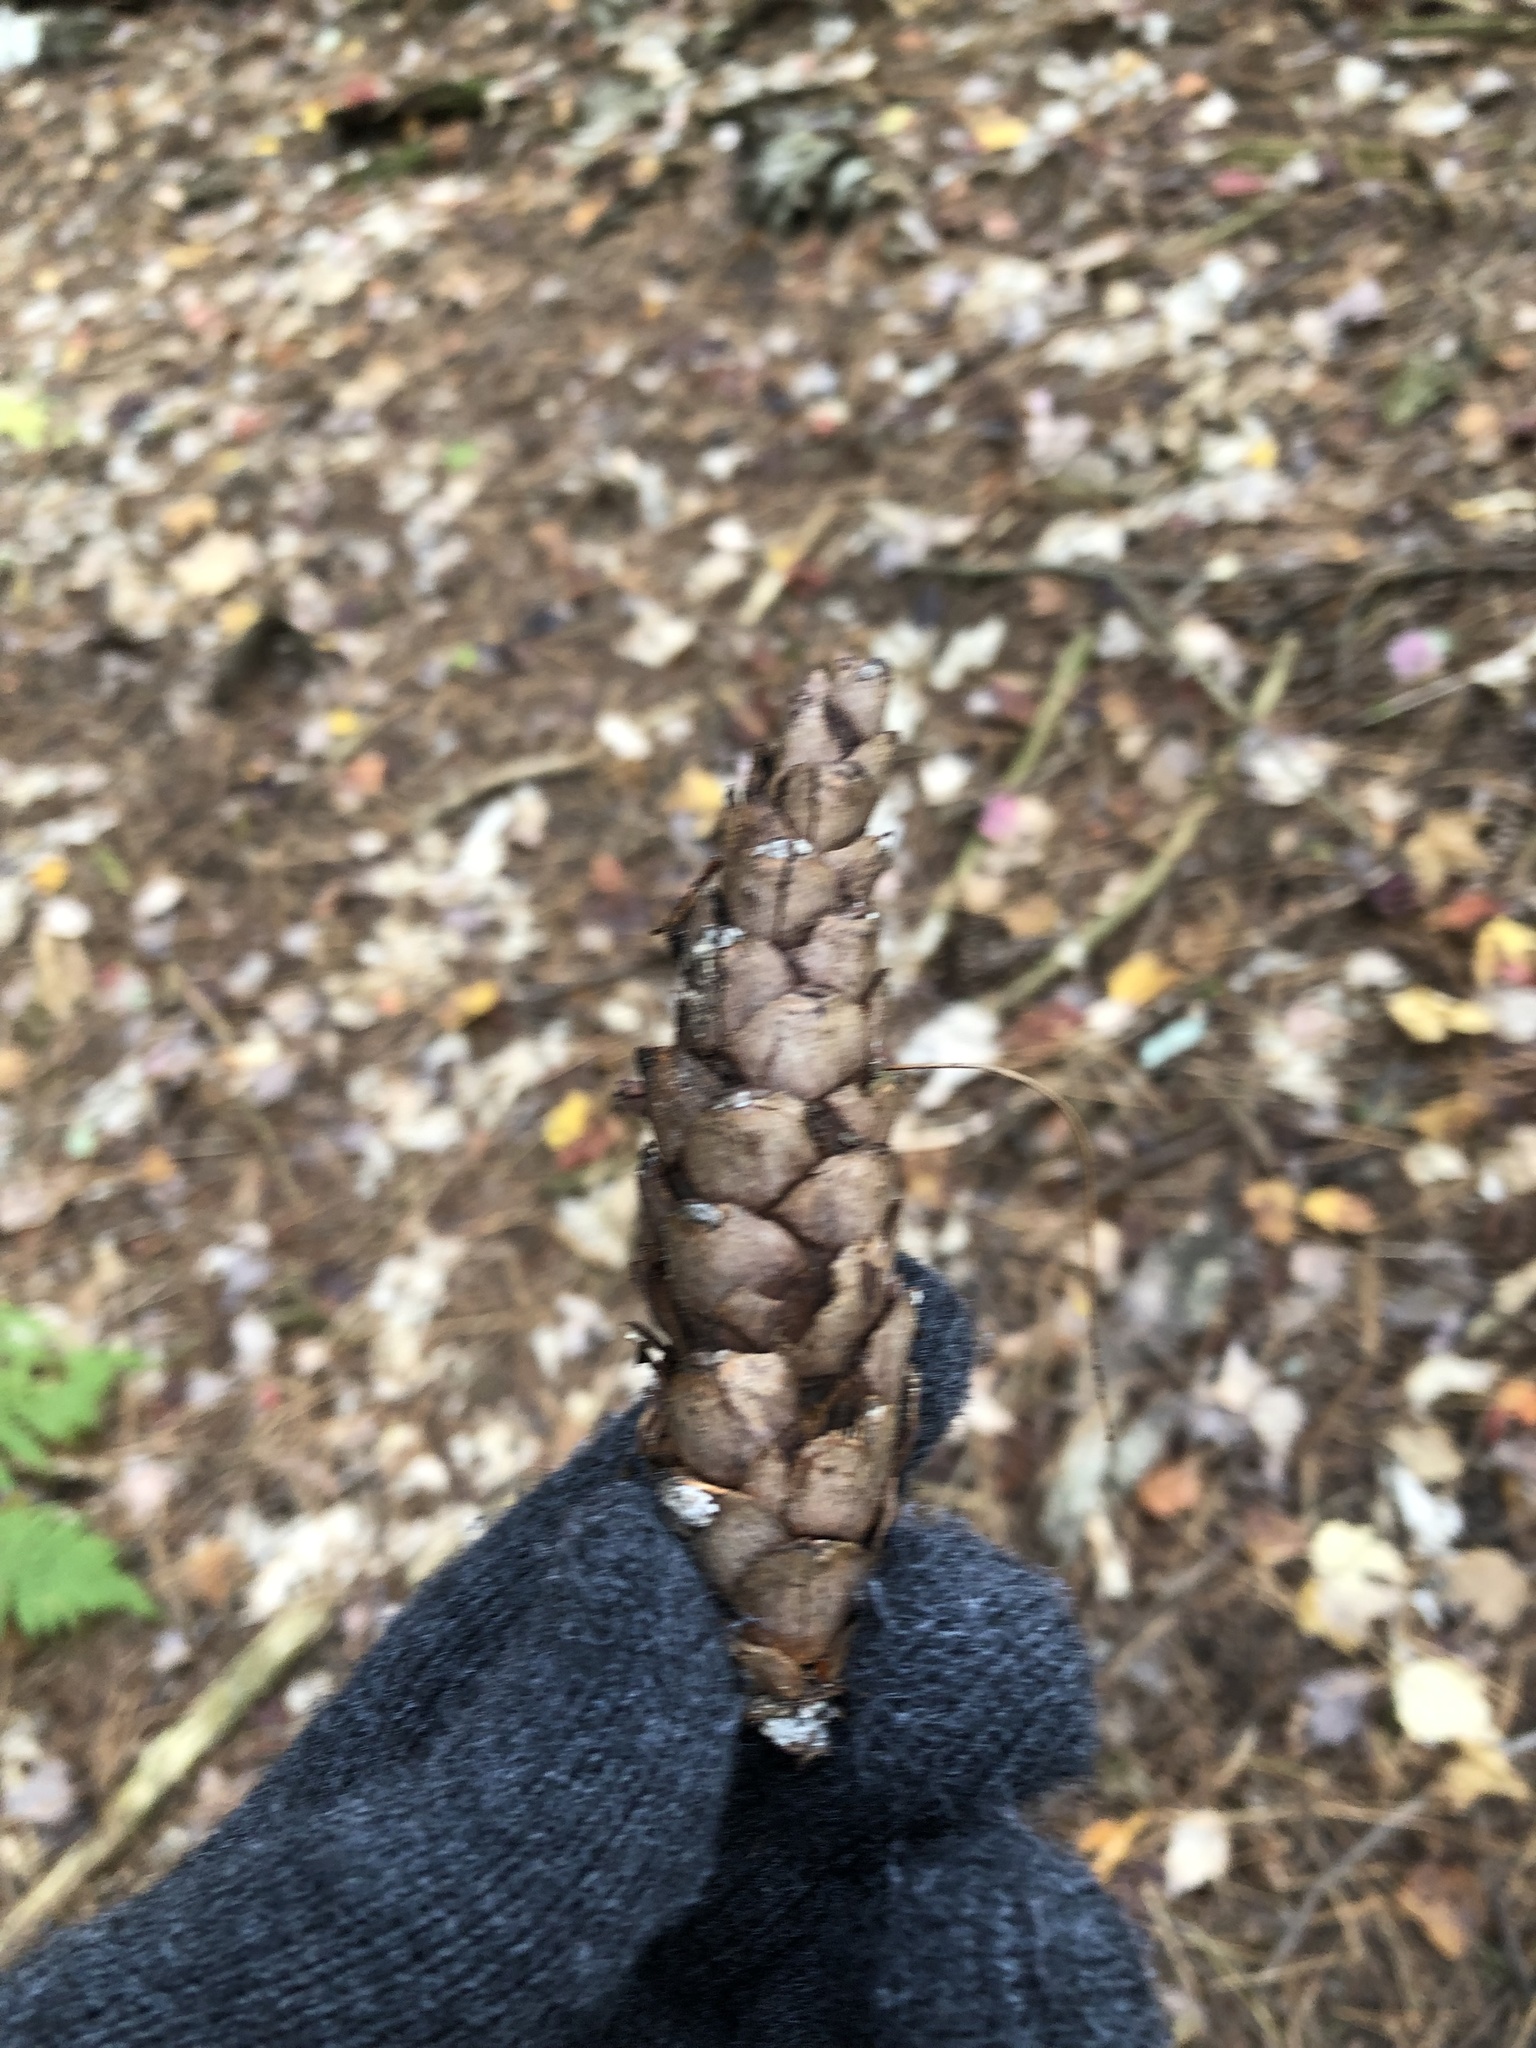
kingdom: Plantae
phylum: Tracheophyta
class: Pinopsida
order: Pinales
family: Pinaceae
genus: Pinus
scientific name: Pinus strobus
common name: Weymouth pine
